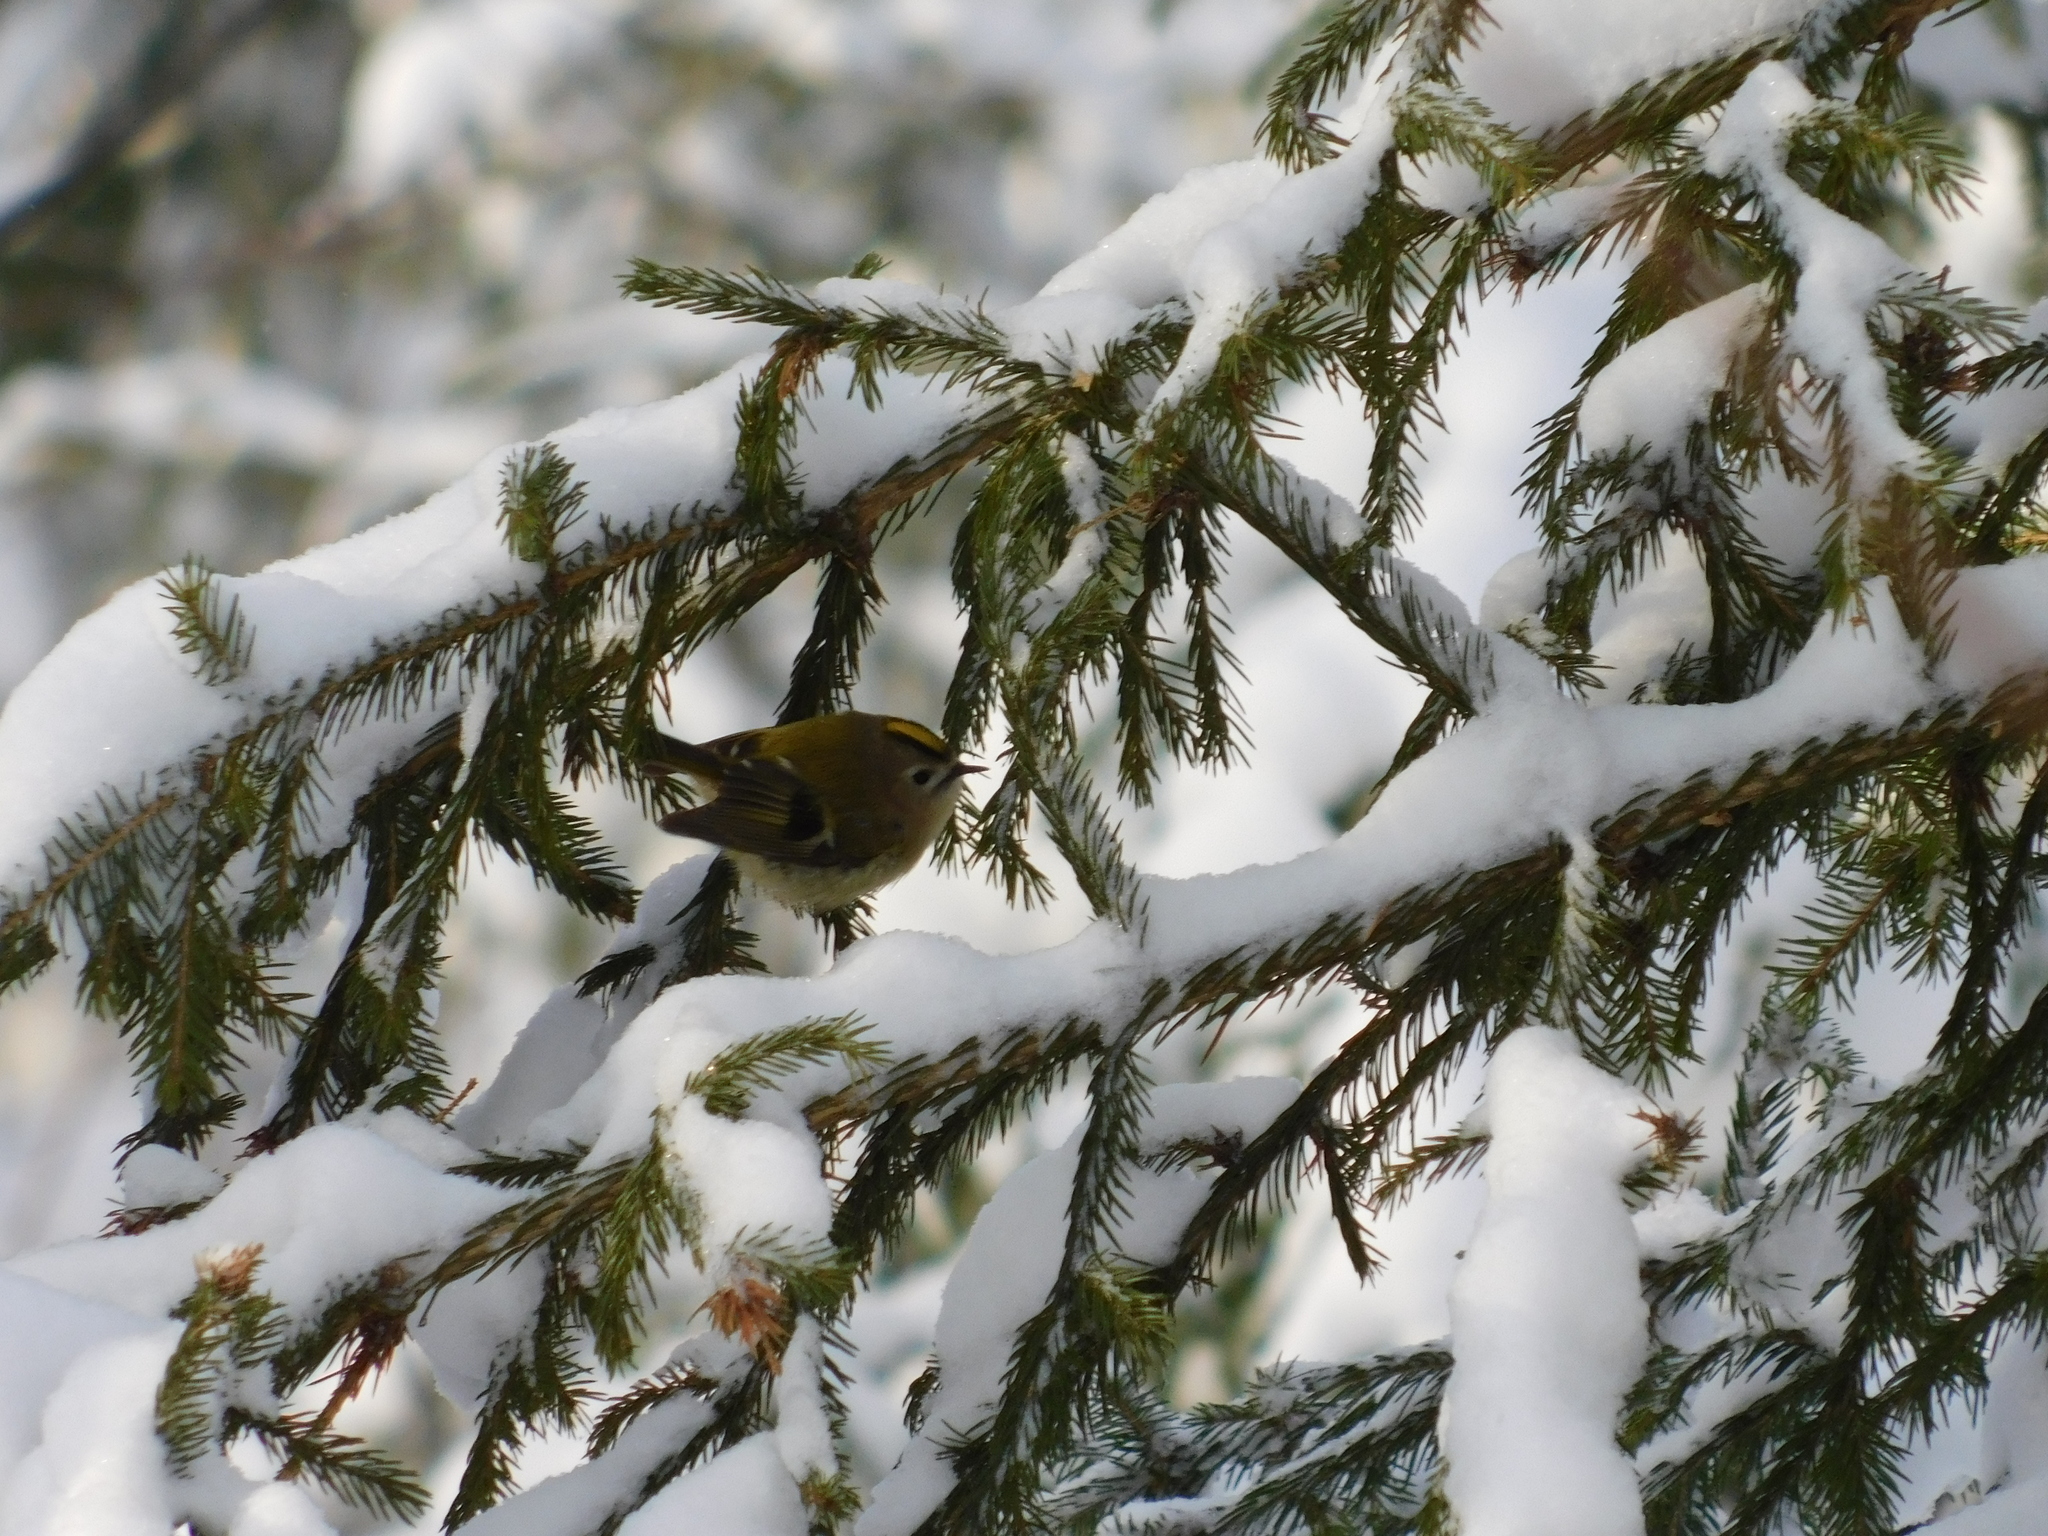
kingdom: Animalia
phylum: Chordata
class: Aves
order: Passeriformes
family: Regulidae
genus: Regulus
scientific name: Regulus regulus
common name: Goldcrest
